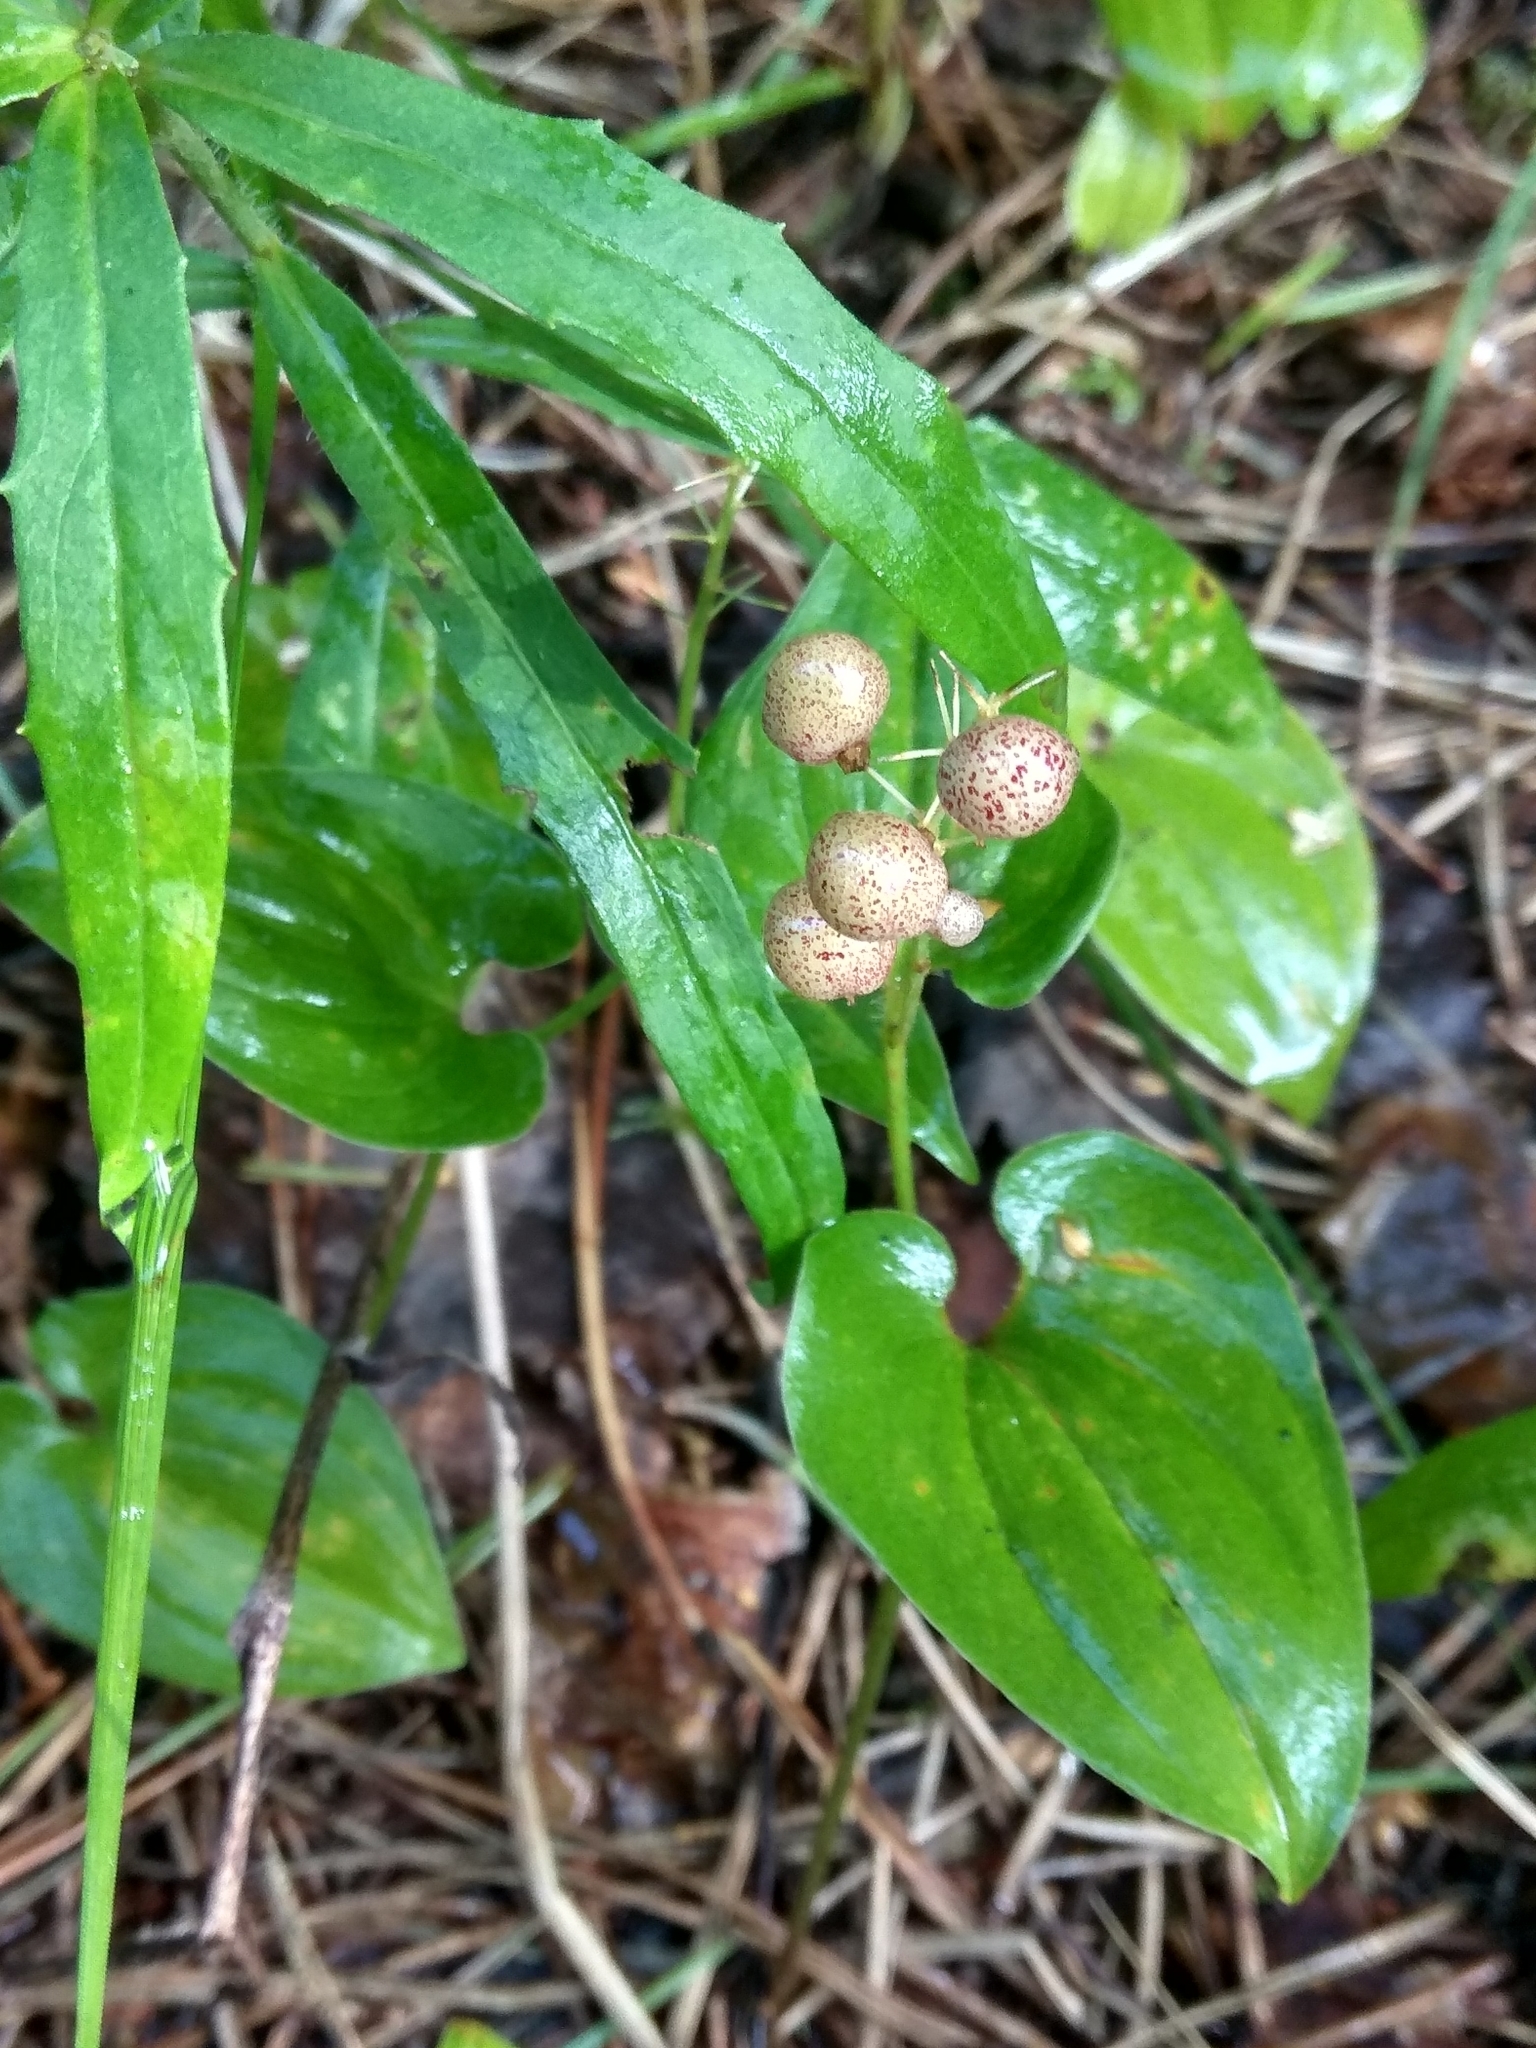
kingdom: Plantae
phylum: Tracheophyta
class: Liliopsida
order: Asparagales
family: Asparagaceae
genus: Maianthemum
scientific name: Maianthemum bifolium
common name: May lily
